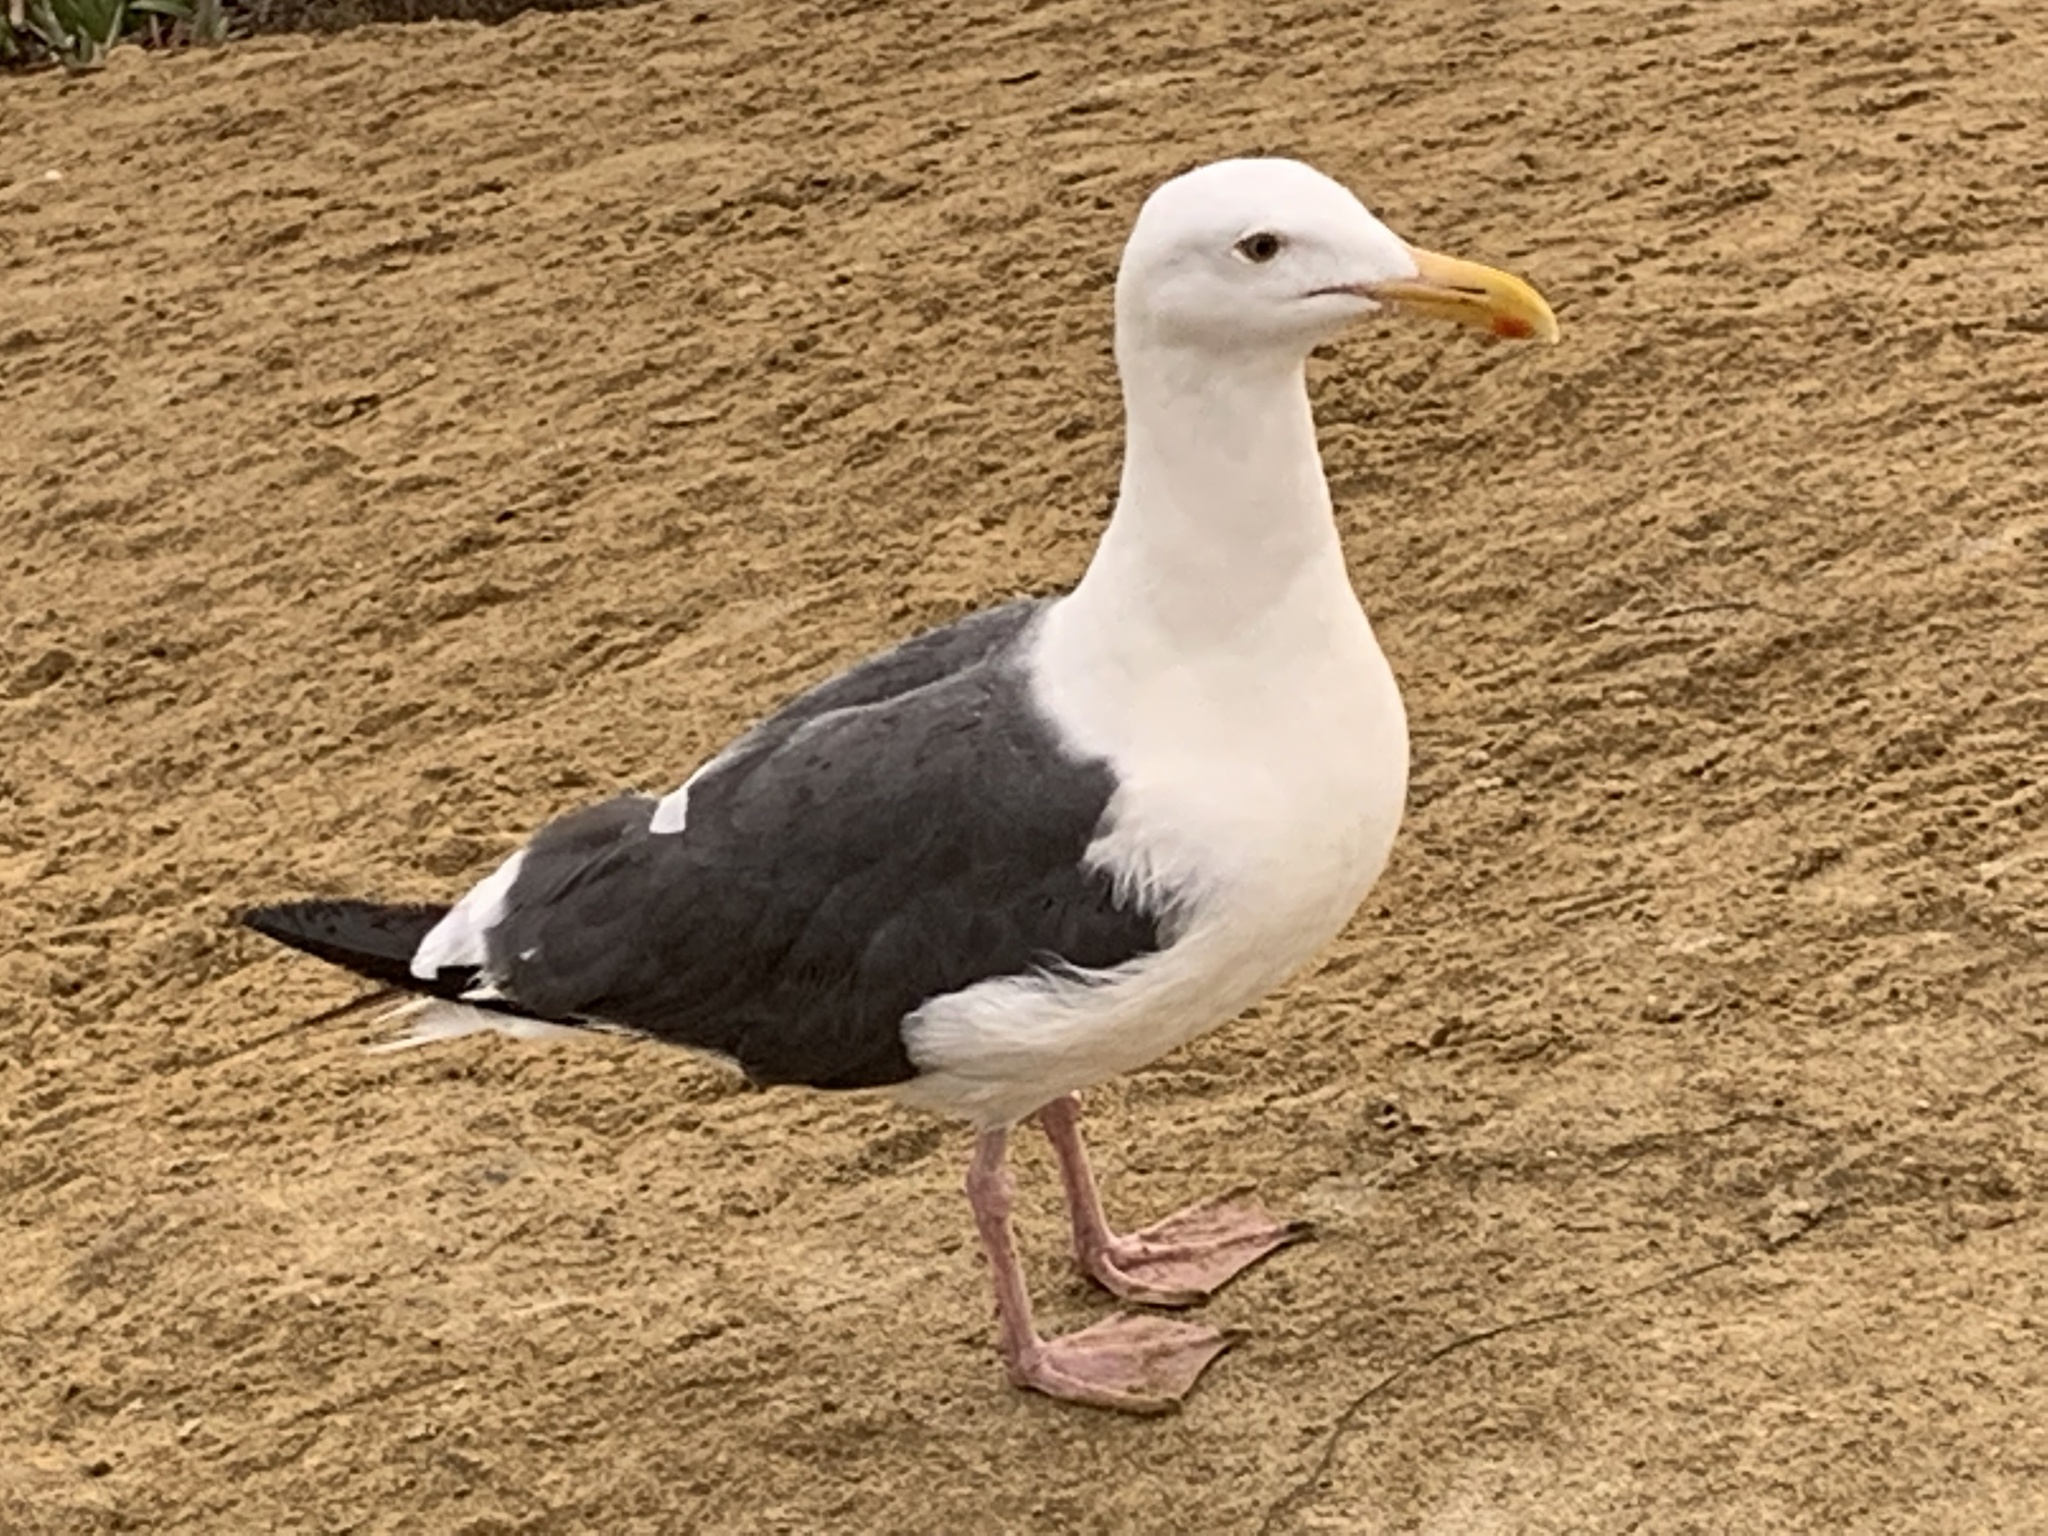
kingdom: Animalia
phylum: Chordata
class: Aves
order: Charadriiformes
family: Laridae
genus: Larus
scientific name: Larus occidentalis
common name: Western gull
